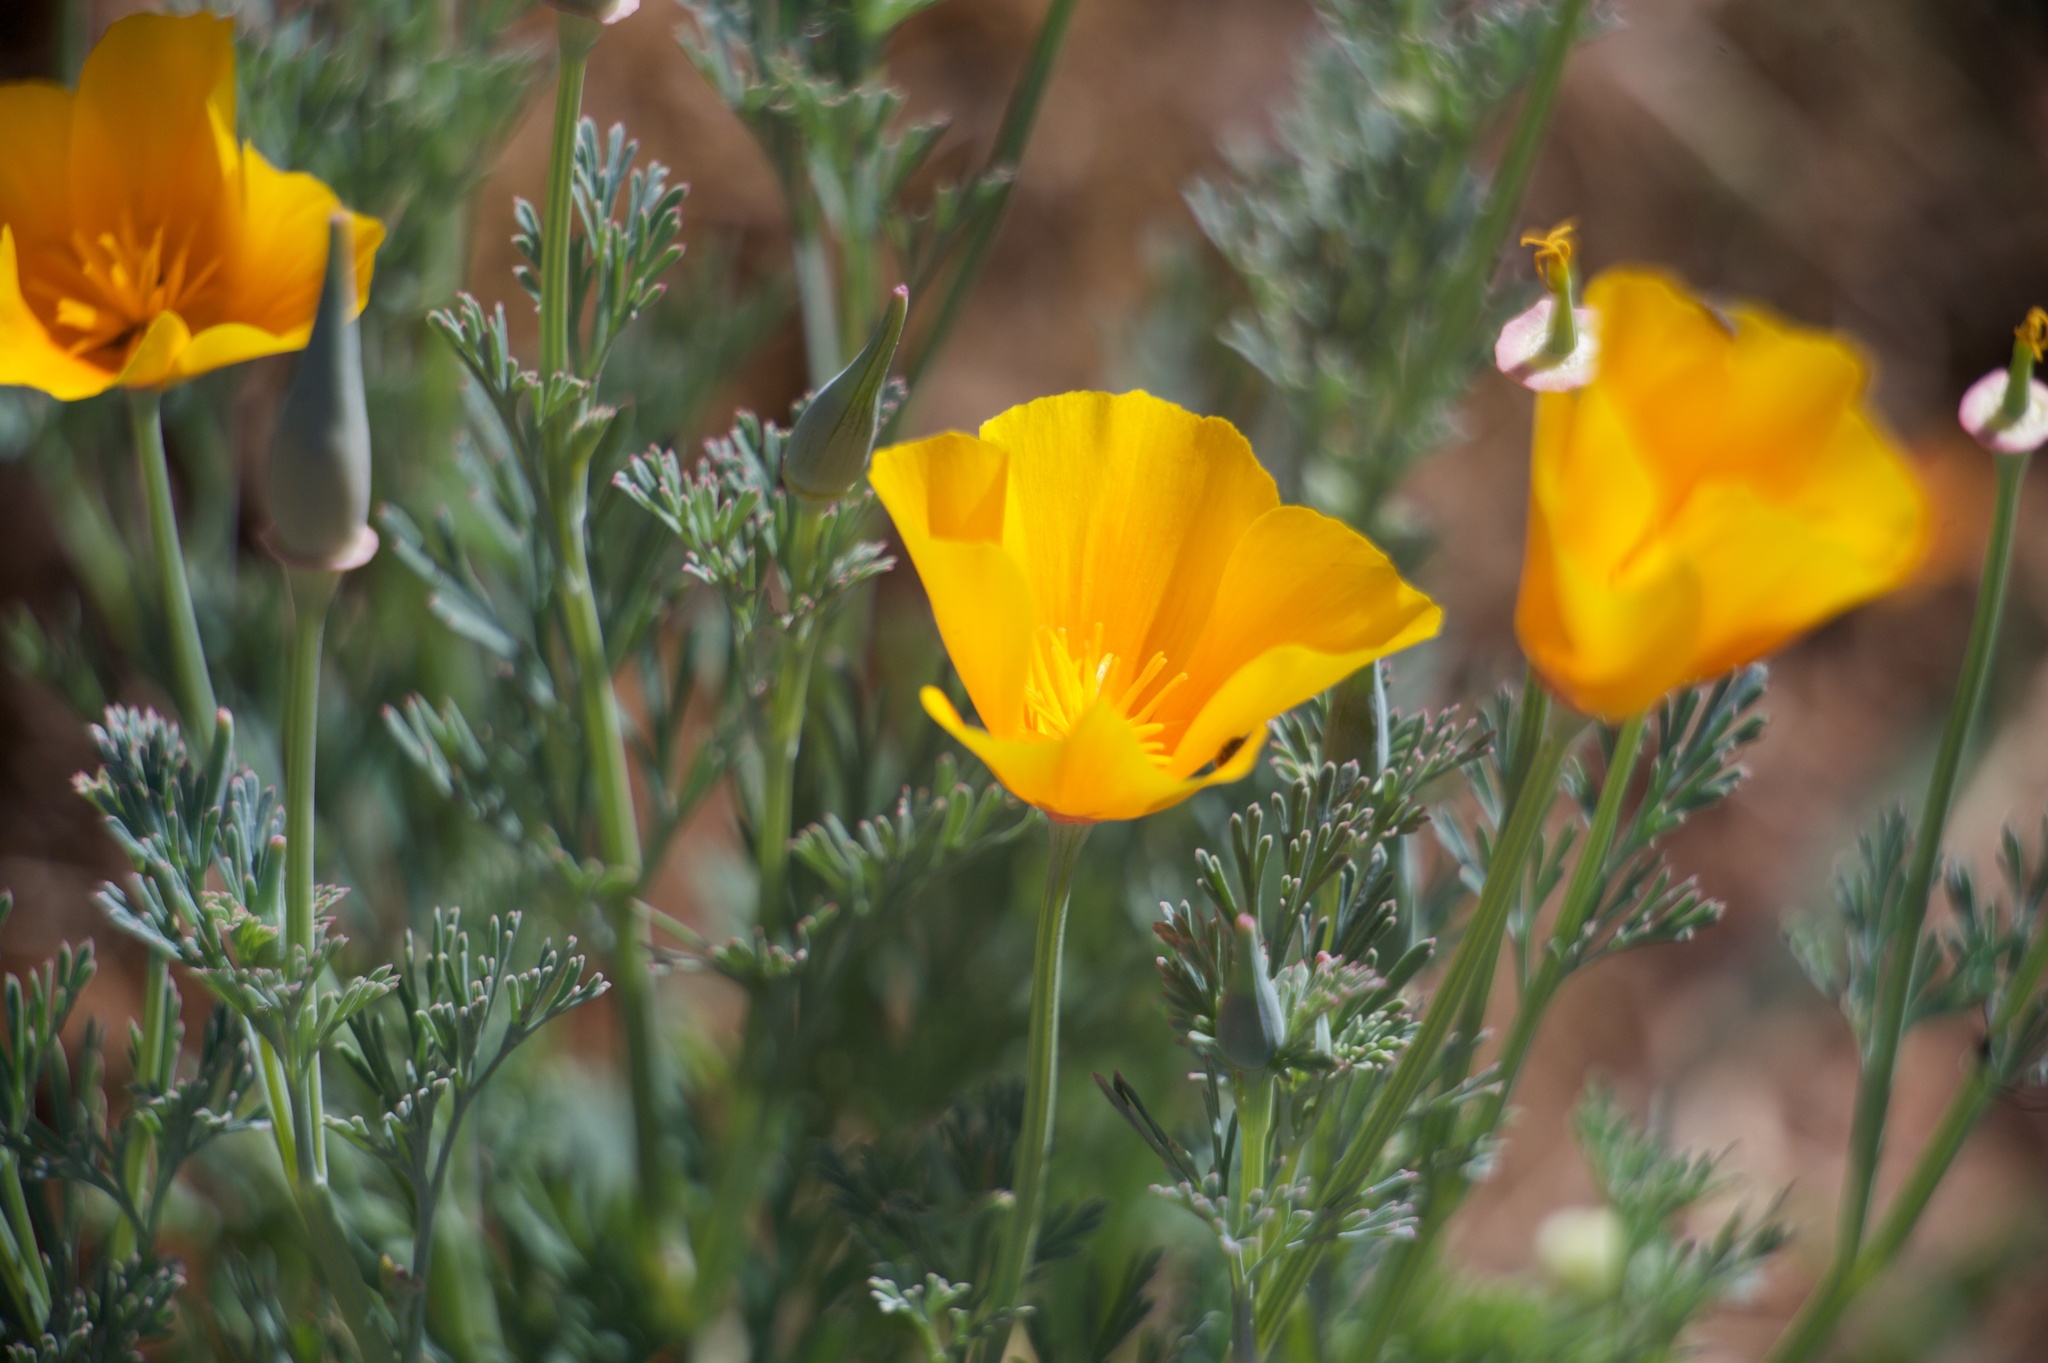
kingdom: Plantae
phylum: Tracheophyta
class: Magnoliopsida
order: Ranunculales
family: Papaveraceae
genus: Eschscholzia
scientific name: Eschscholzia californica
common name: California poppy
